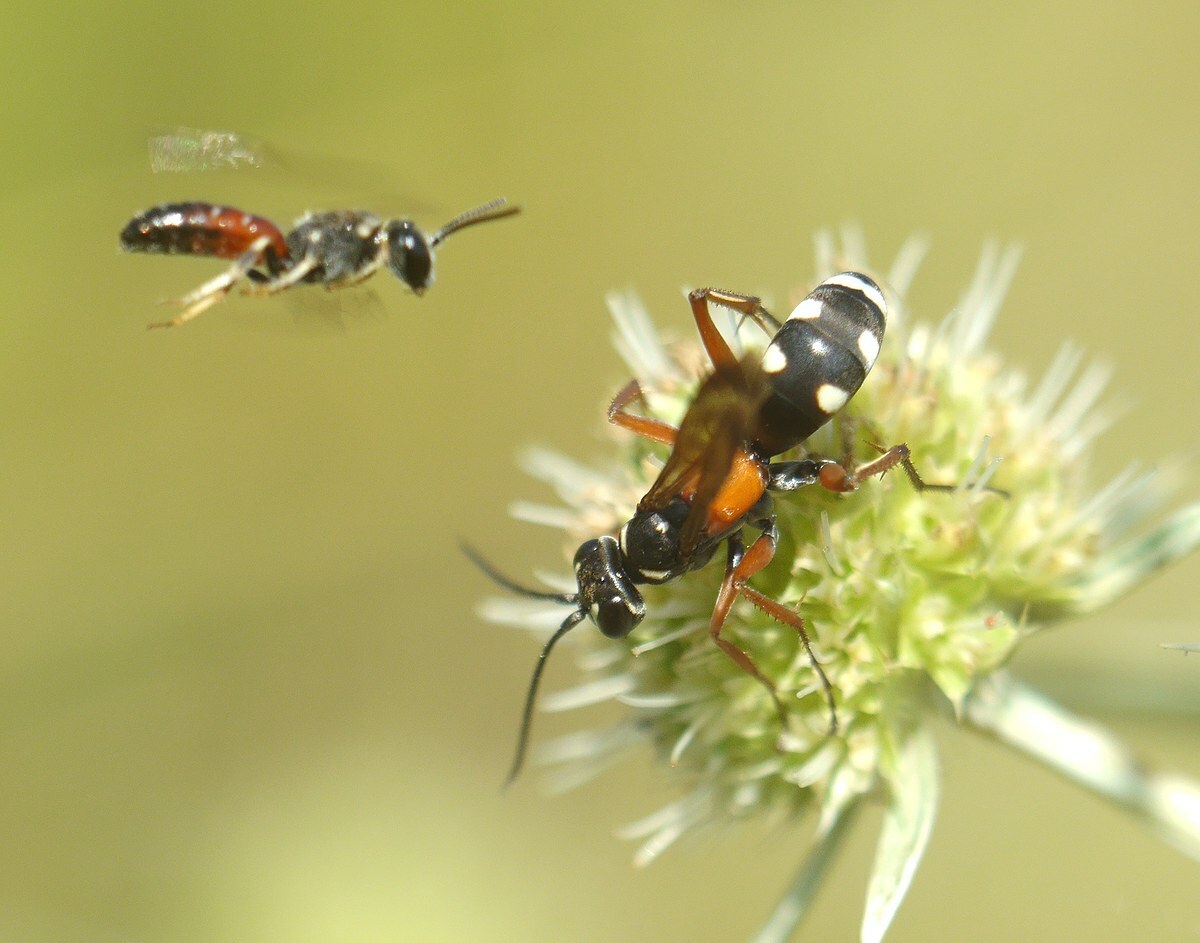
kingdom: Animalia
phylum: Arthropoda
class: Insecta
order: Hymenoptera
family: Pompilidae
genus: Cryptocheilus
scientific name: Cryptocheilus fabricii
